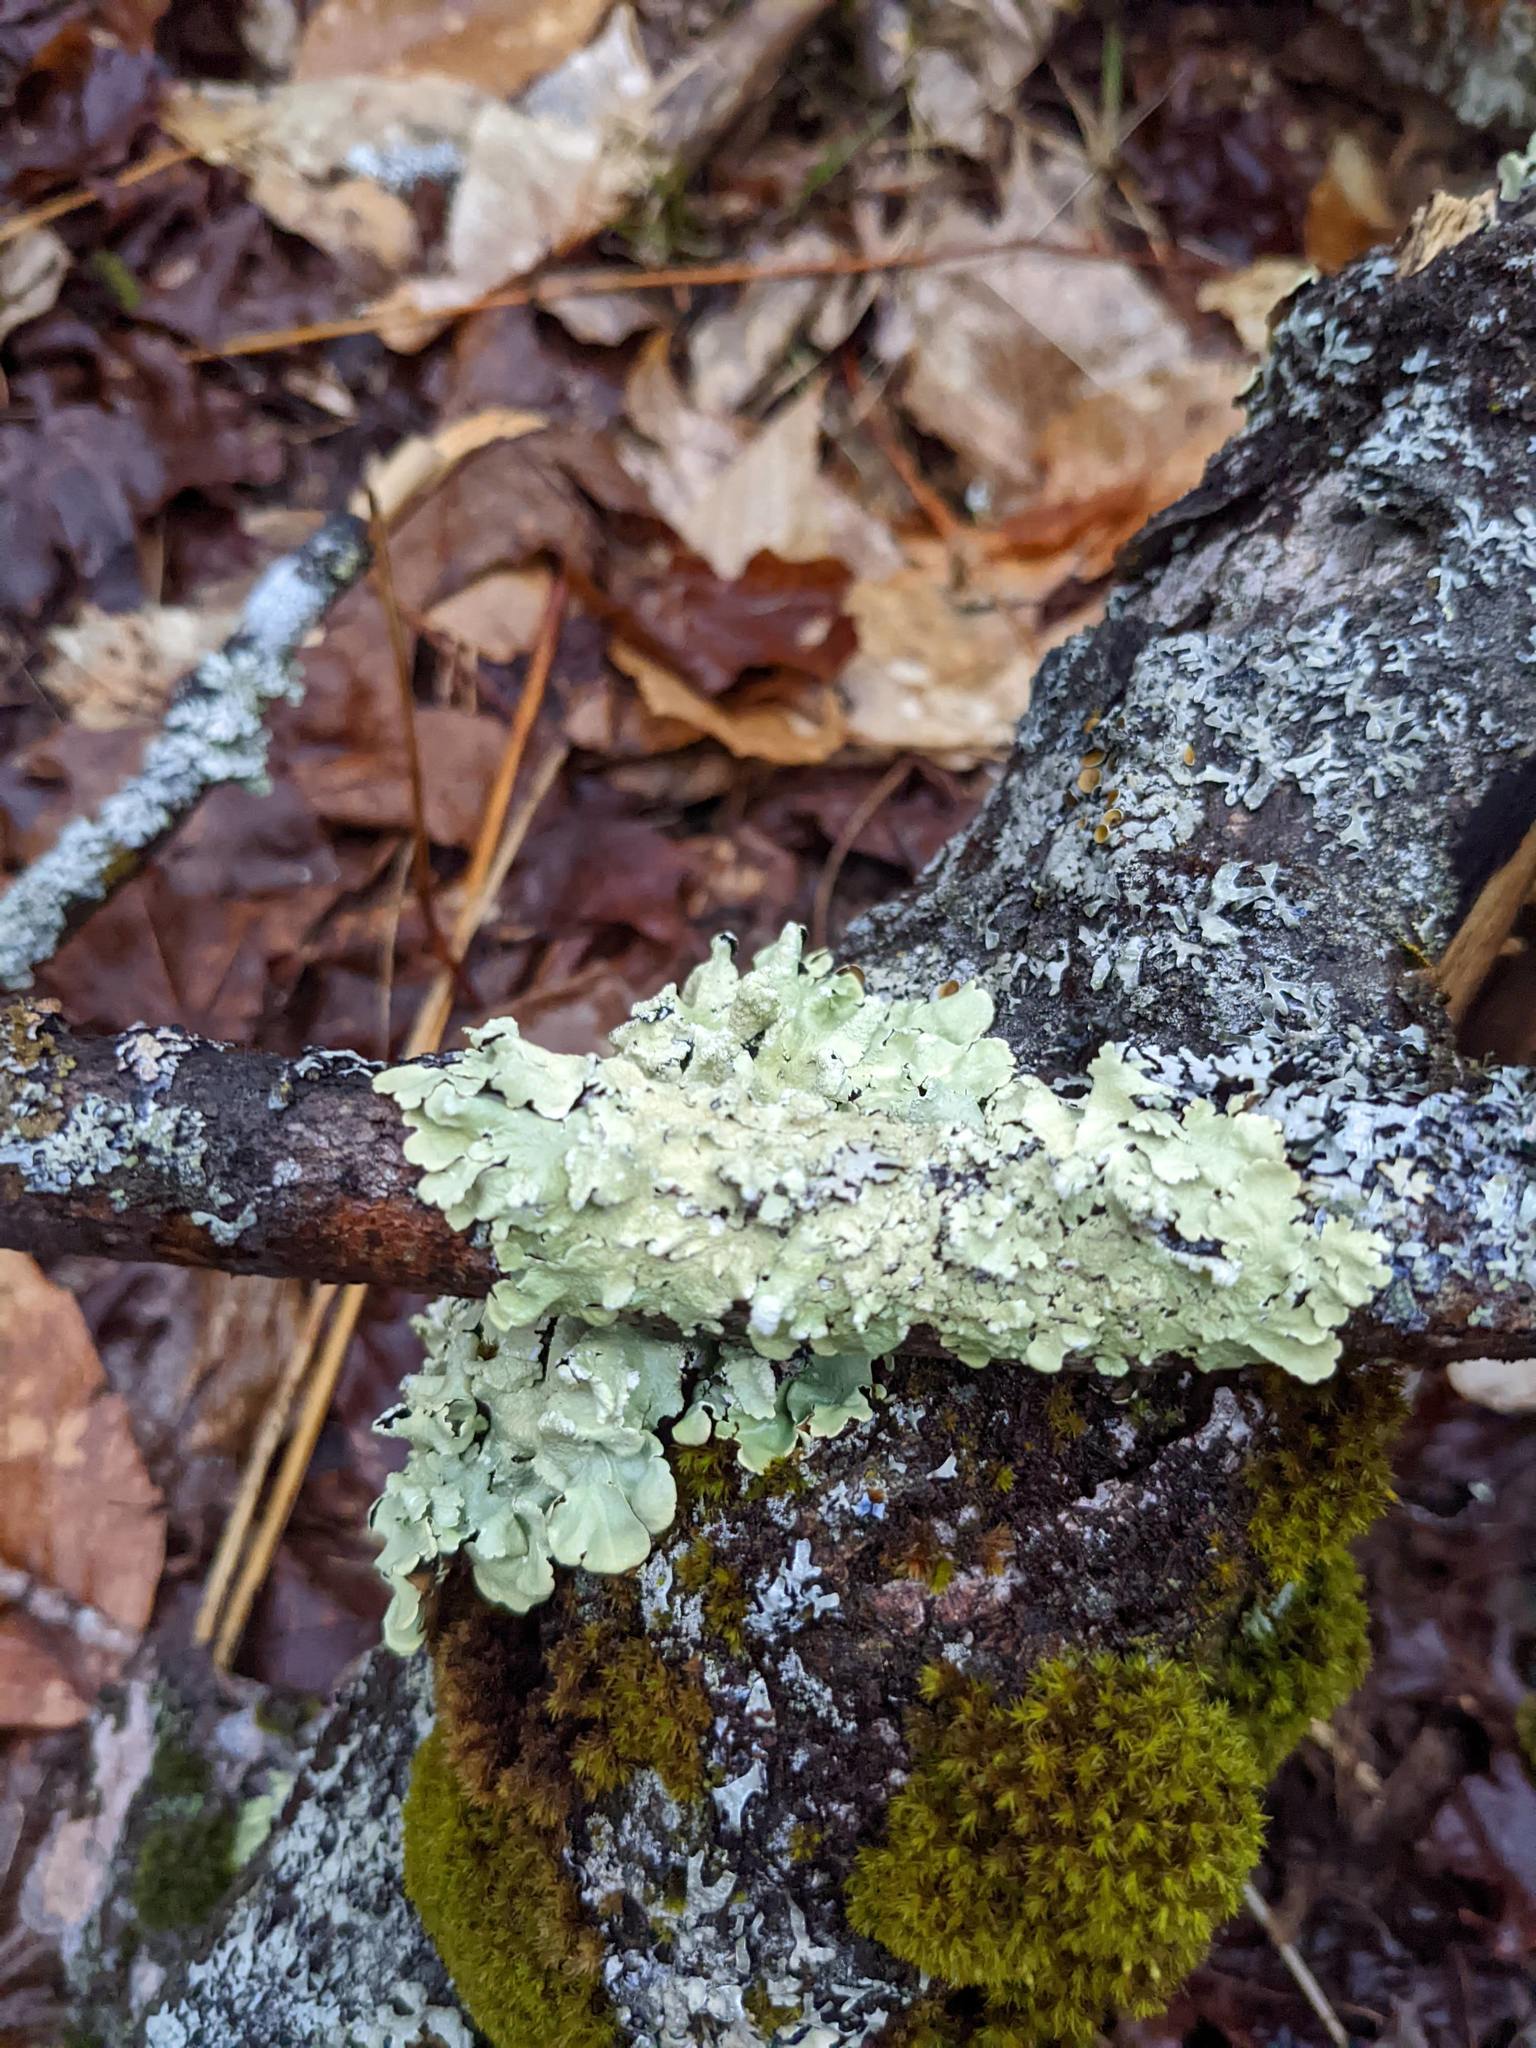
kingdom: Fungi
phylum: Ascomycota
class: Lecanoromycetes
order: Lecanorales
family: Parmeliaceae
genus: Flavoparmelia
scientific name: Flavoparmelia caperata
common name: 40-mile per hour lichen
